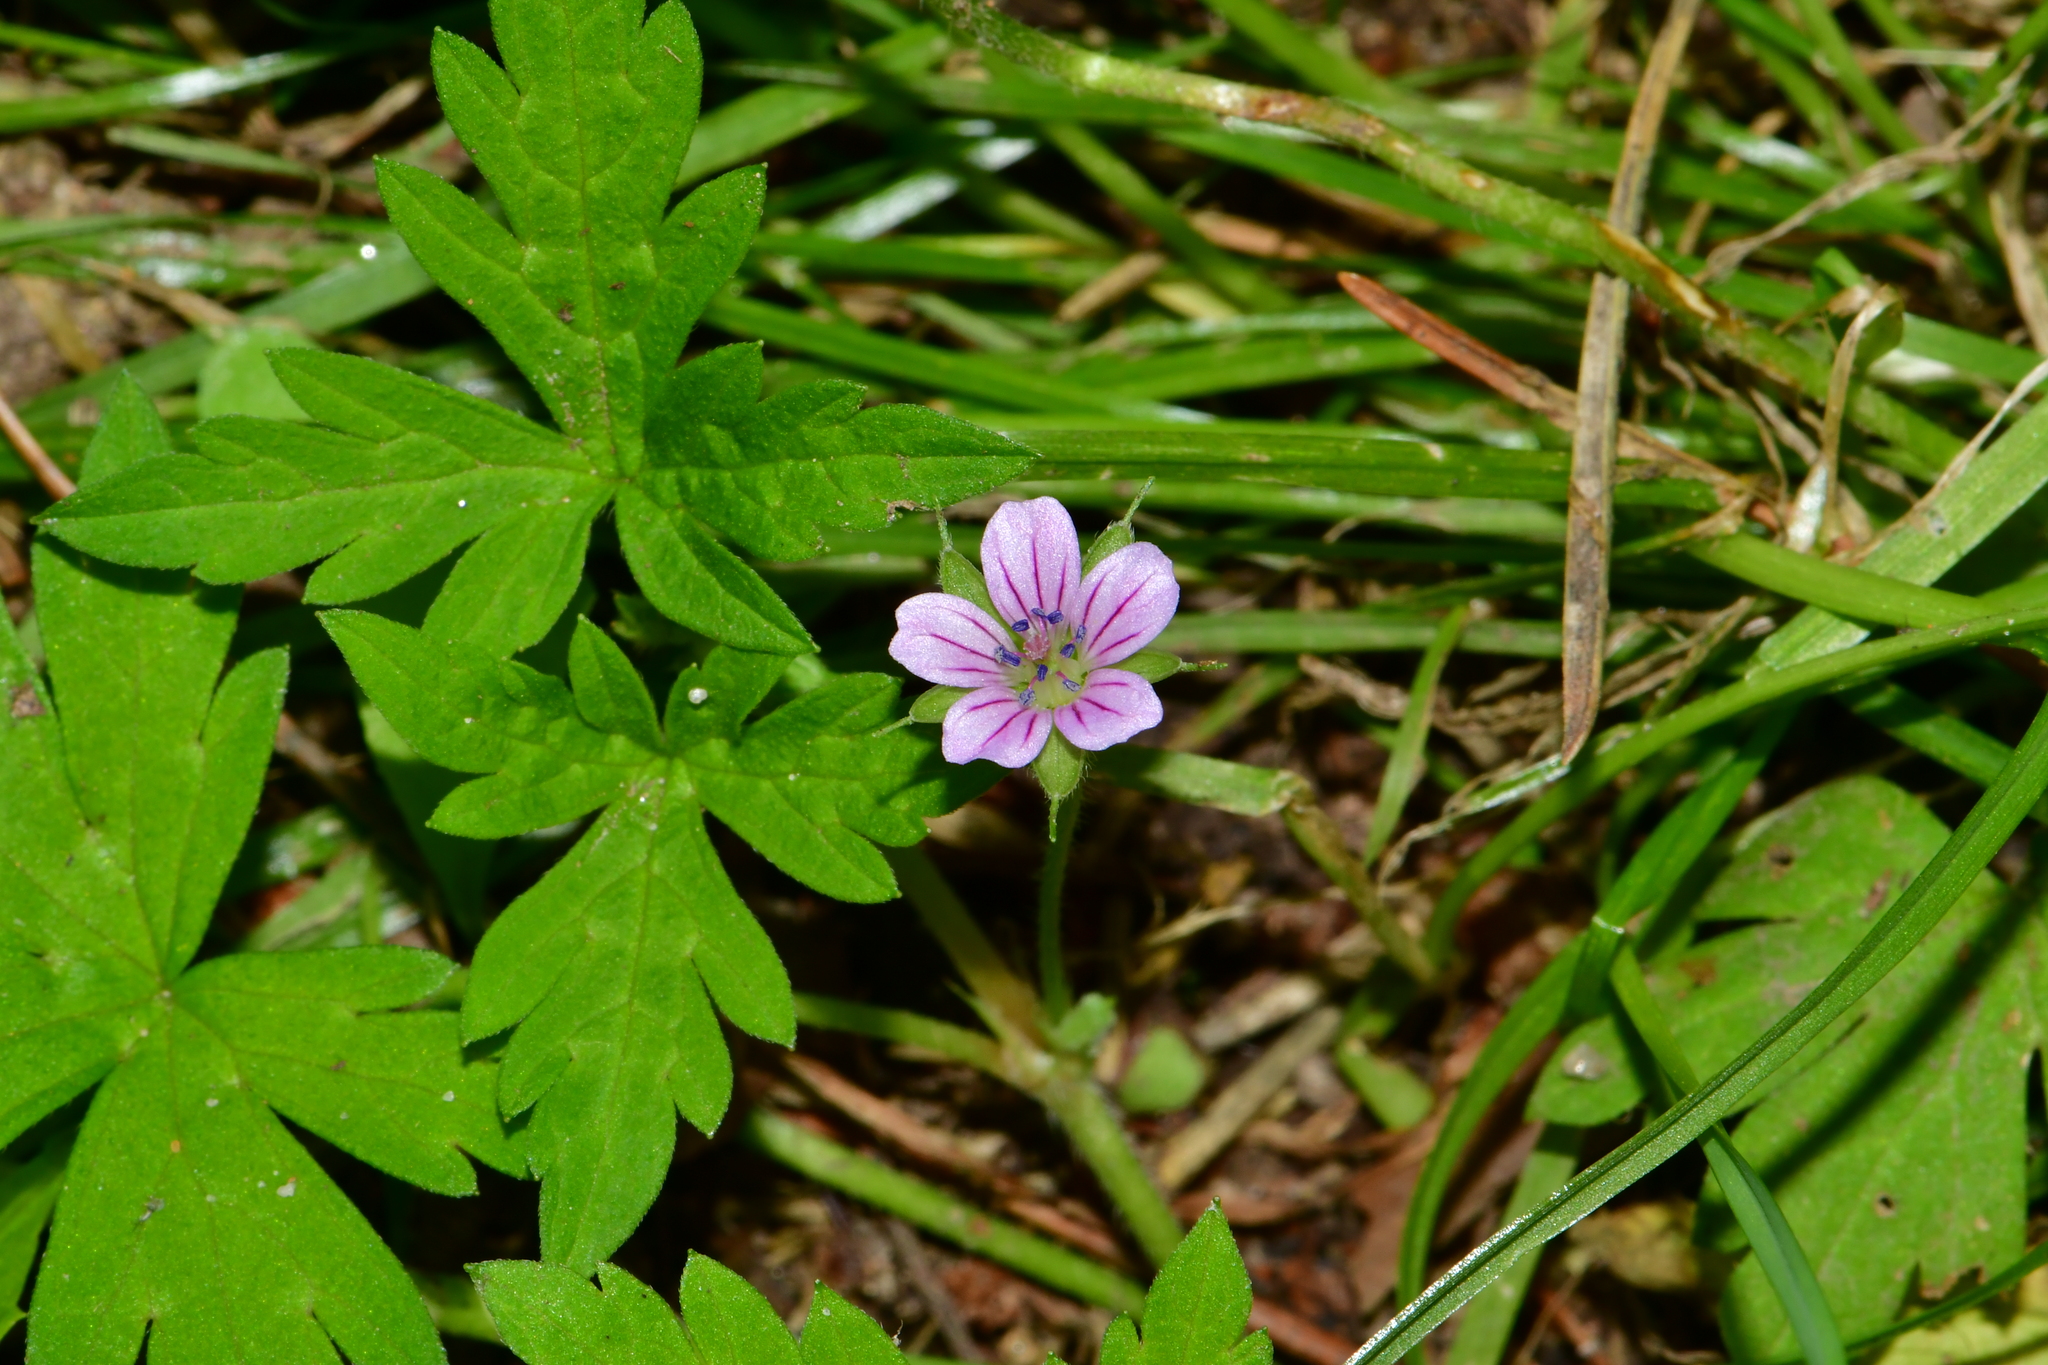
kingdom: Plantae
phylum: Tracheophyta
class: Magnoliopsida
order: Geraniales
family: Geraniaceae
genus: Geranium
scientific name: Geranium sibiricum
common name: Siberian crane's-bill
